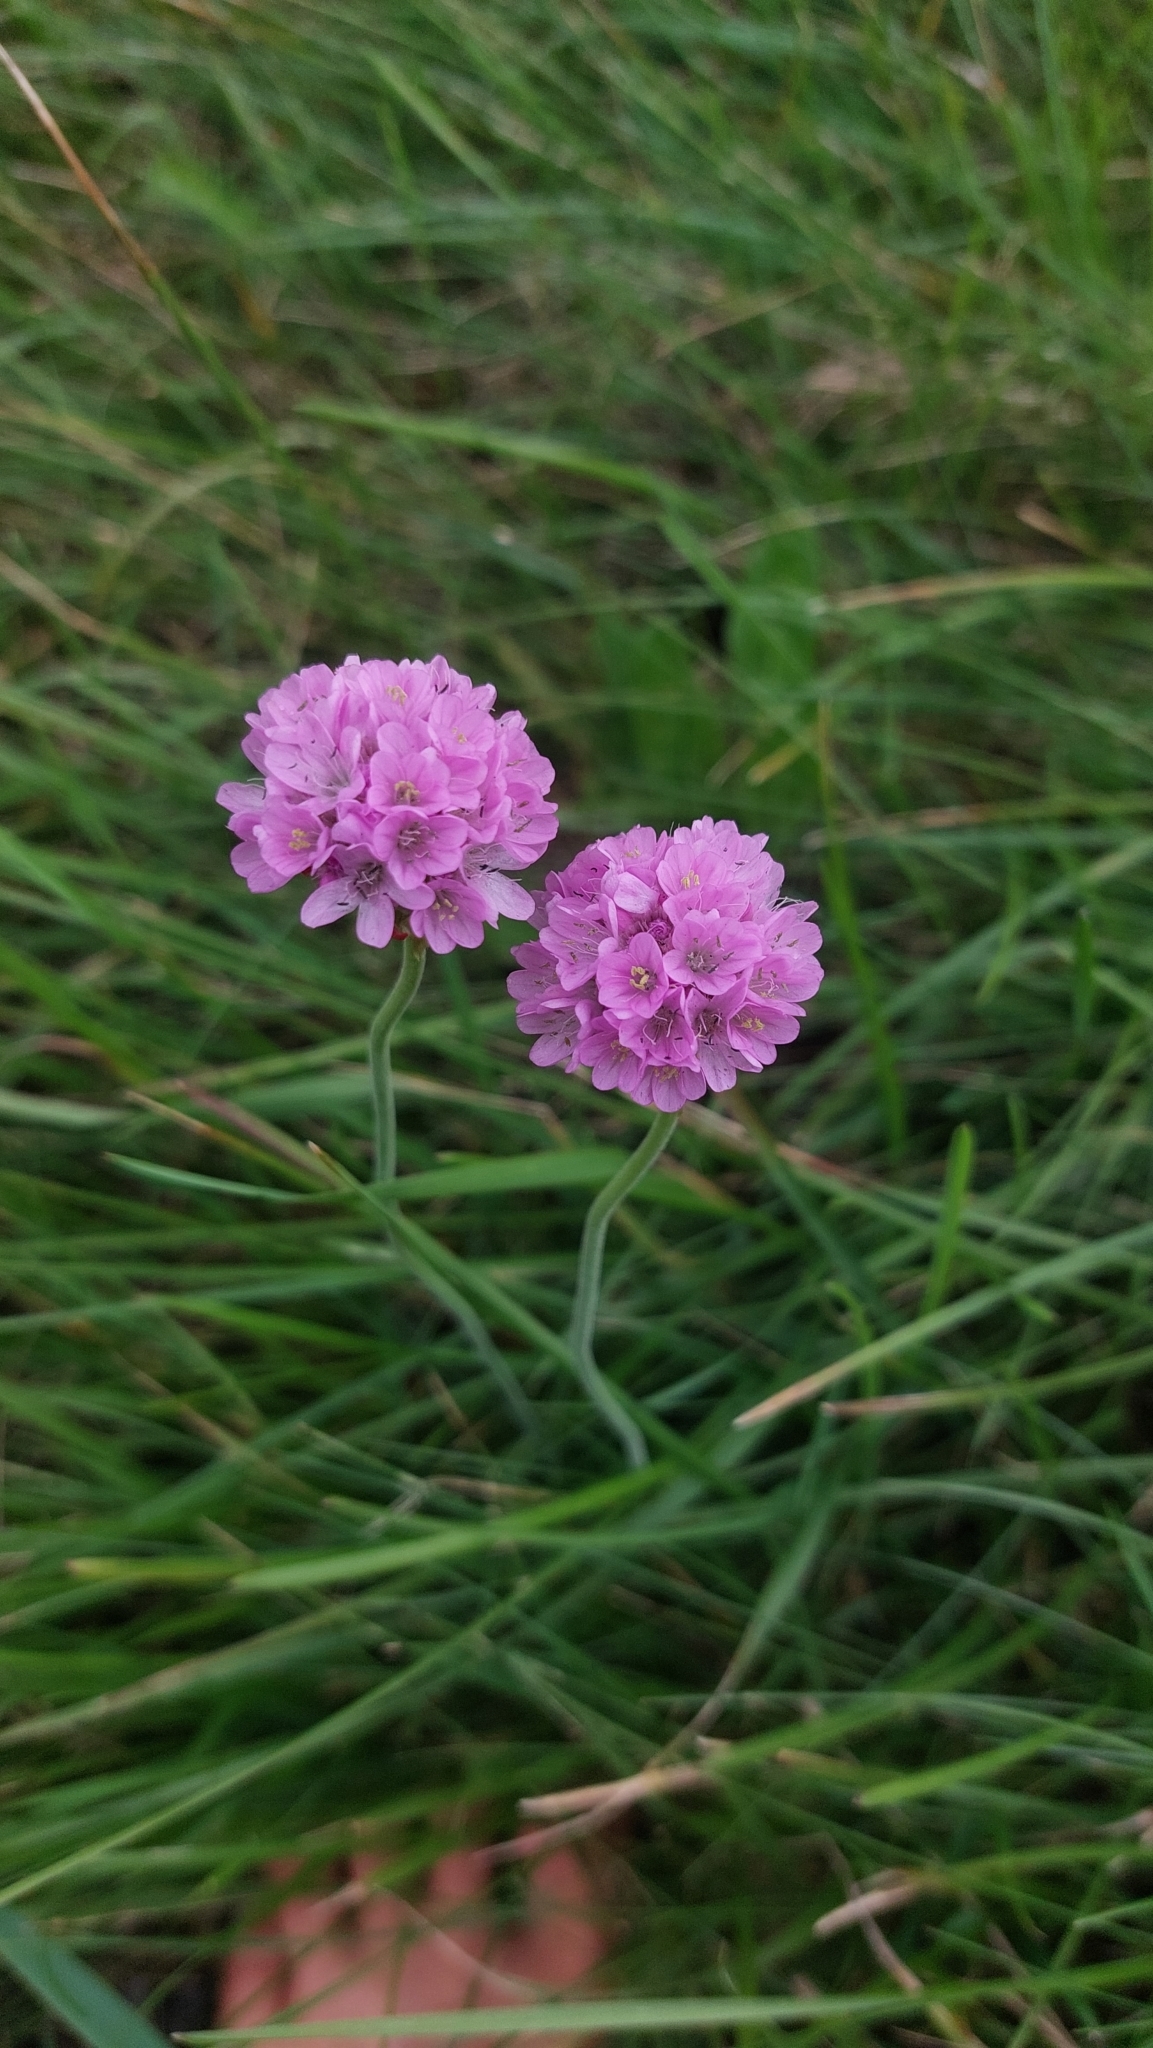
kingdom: Plantae
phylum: Tracheophyta
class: Magnoliopsida
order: Caryophyllales
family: Plumbaginaceae
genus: Armeria
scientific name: Armeria maritima
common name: Thrift
